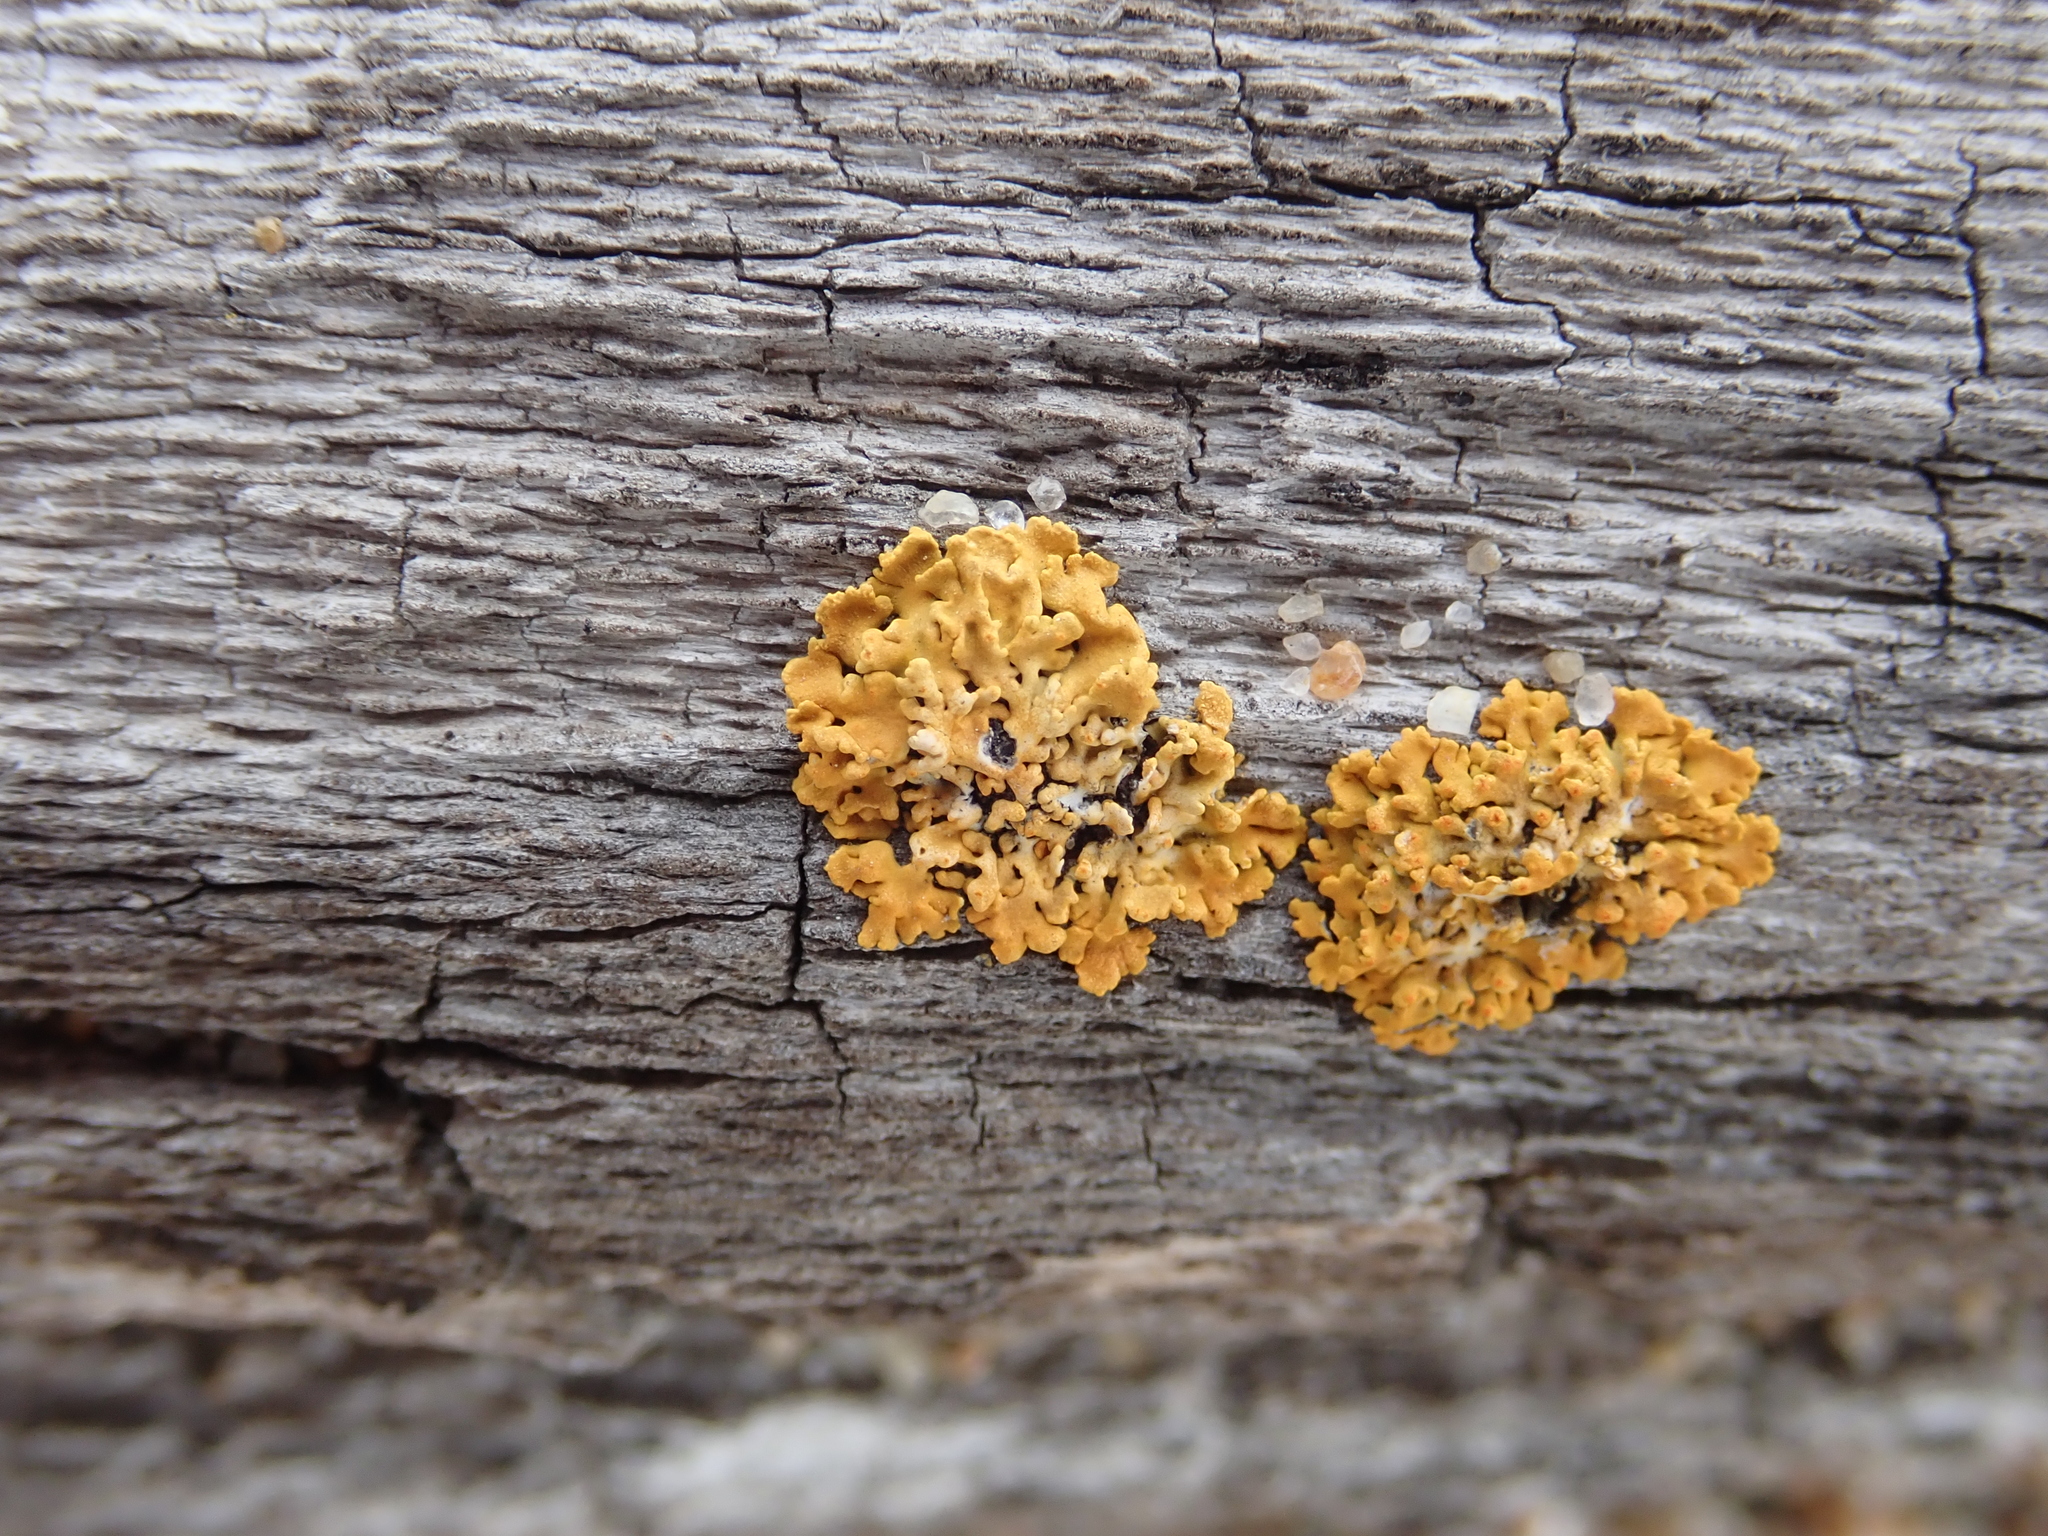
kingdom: Fungi
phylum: Ascomycota
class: Lecanoromycetes
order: Teloschistales
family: Teloschistaceae
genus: Xanthoria
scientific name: Xanthoria parietina
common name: Common orange lichen
